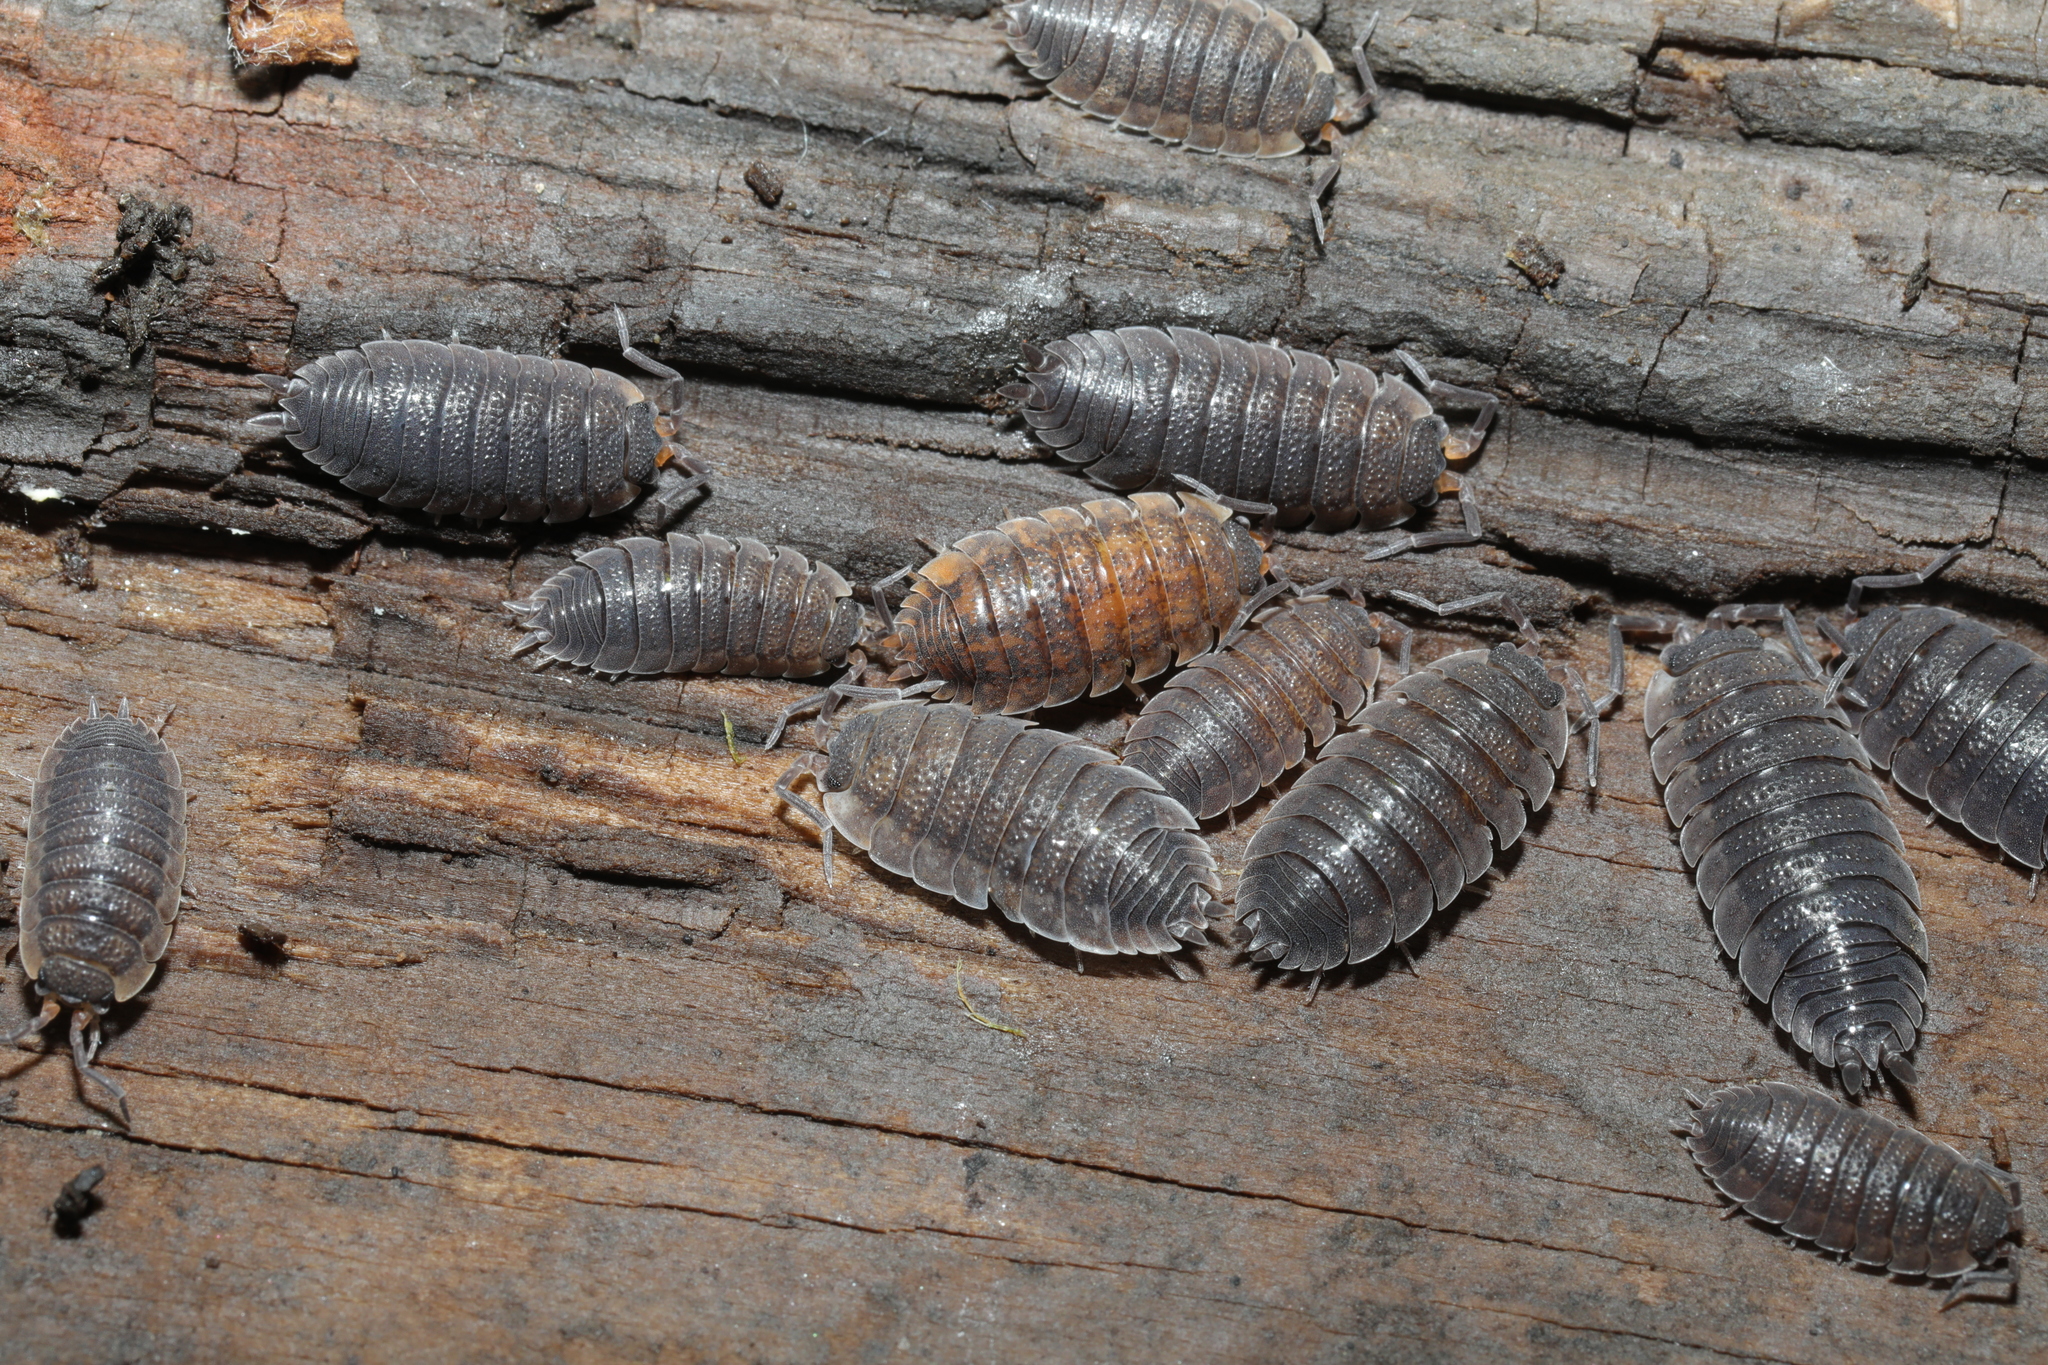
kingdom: Animalia
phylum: Arthropoda
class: Malacostraca
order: Isopoda
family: Porcellionidae
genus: Porcellio
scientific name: Porcellio scaber
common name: Common rough woodlouse
